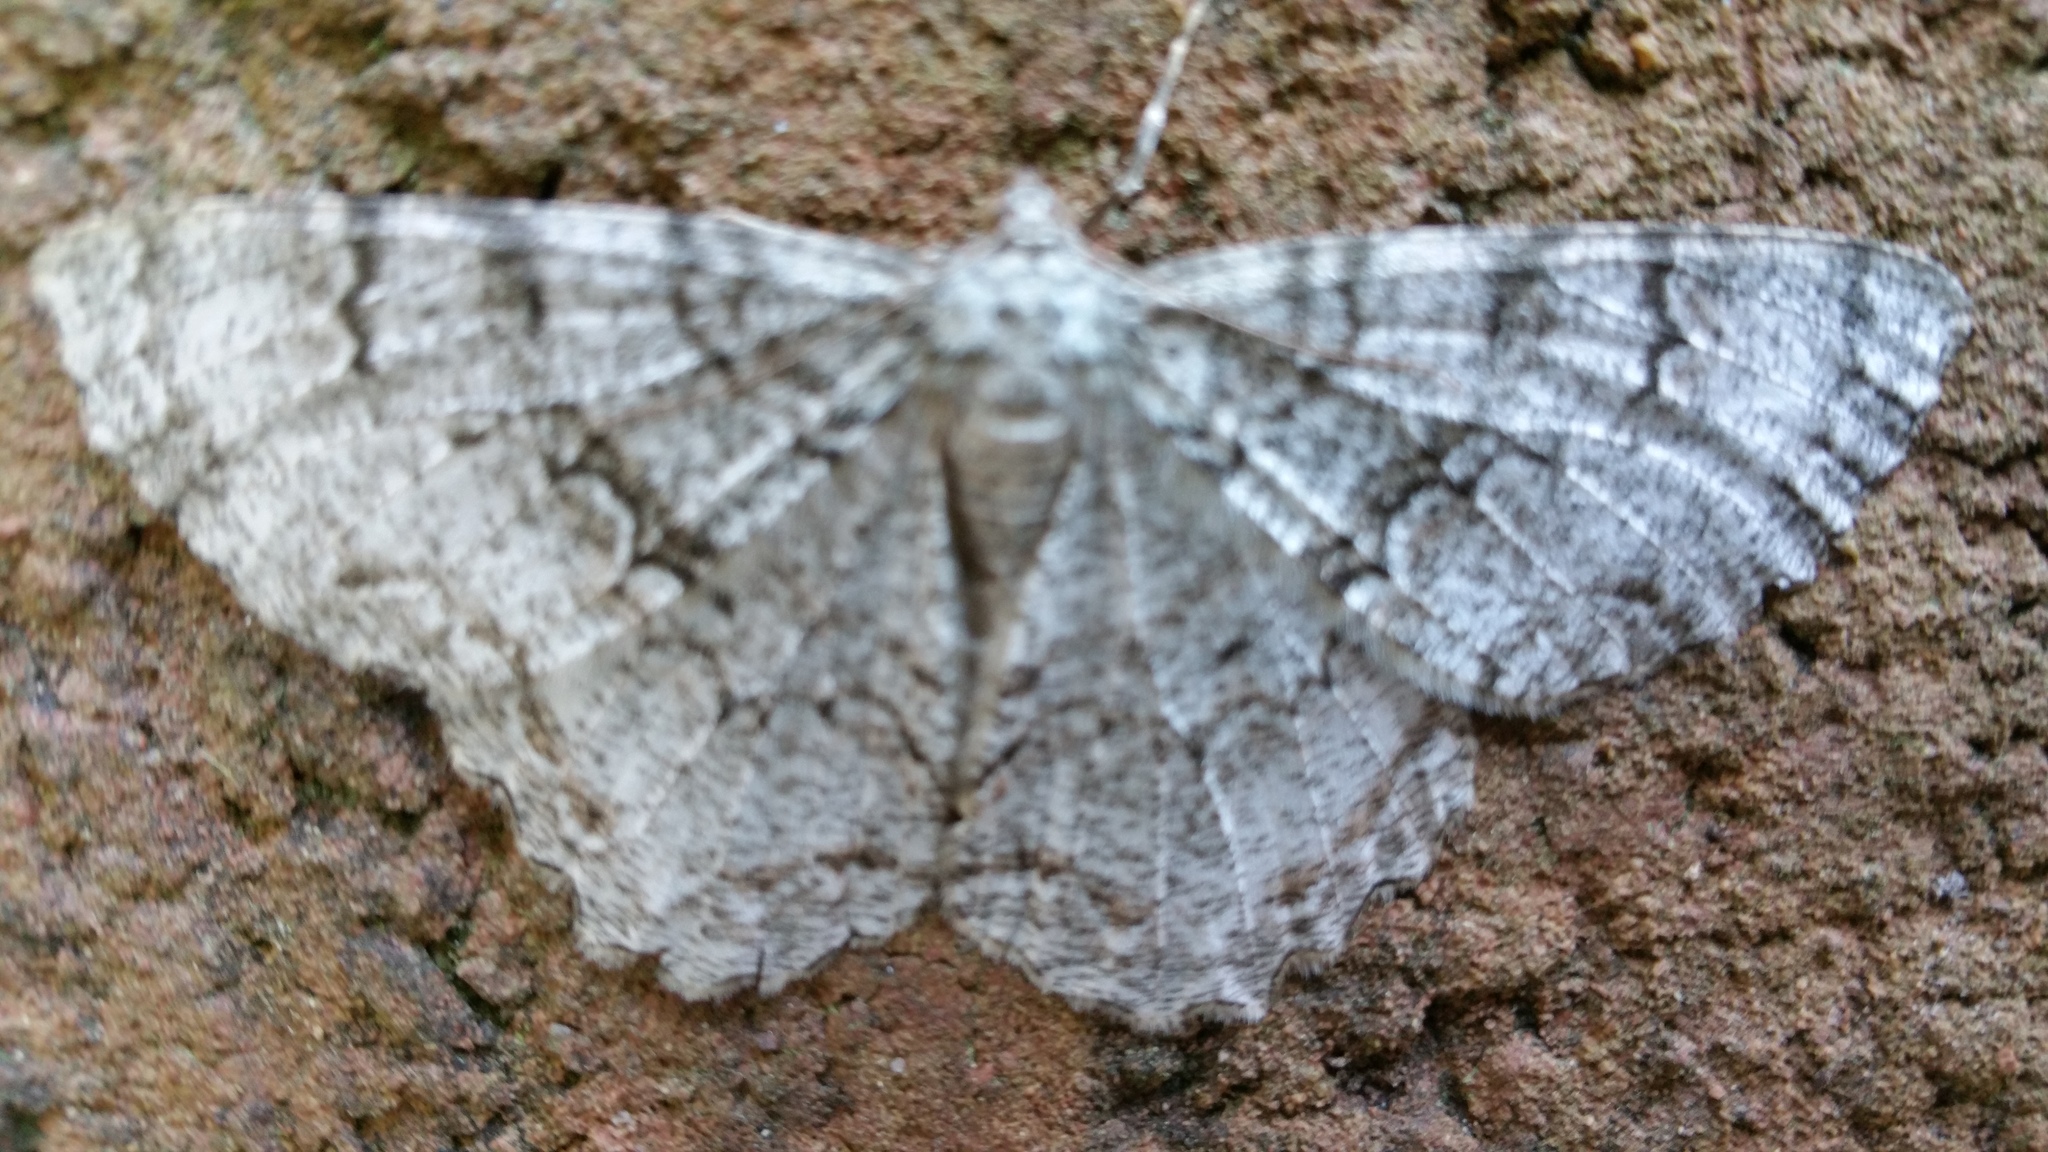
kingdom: Animalia
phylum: Arthropoda
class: Insecta
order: Lepidoptera
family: Geometridae
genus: Epimecis
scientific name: Epimecis hortaria
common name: Tulip-tree beauty
